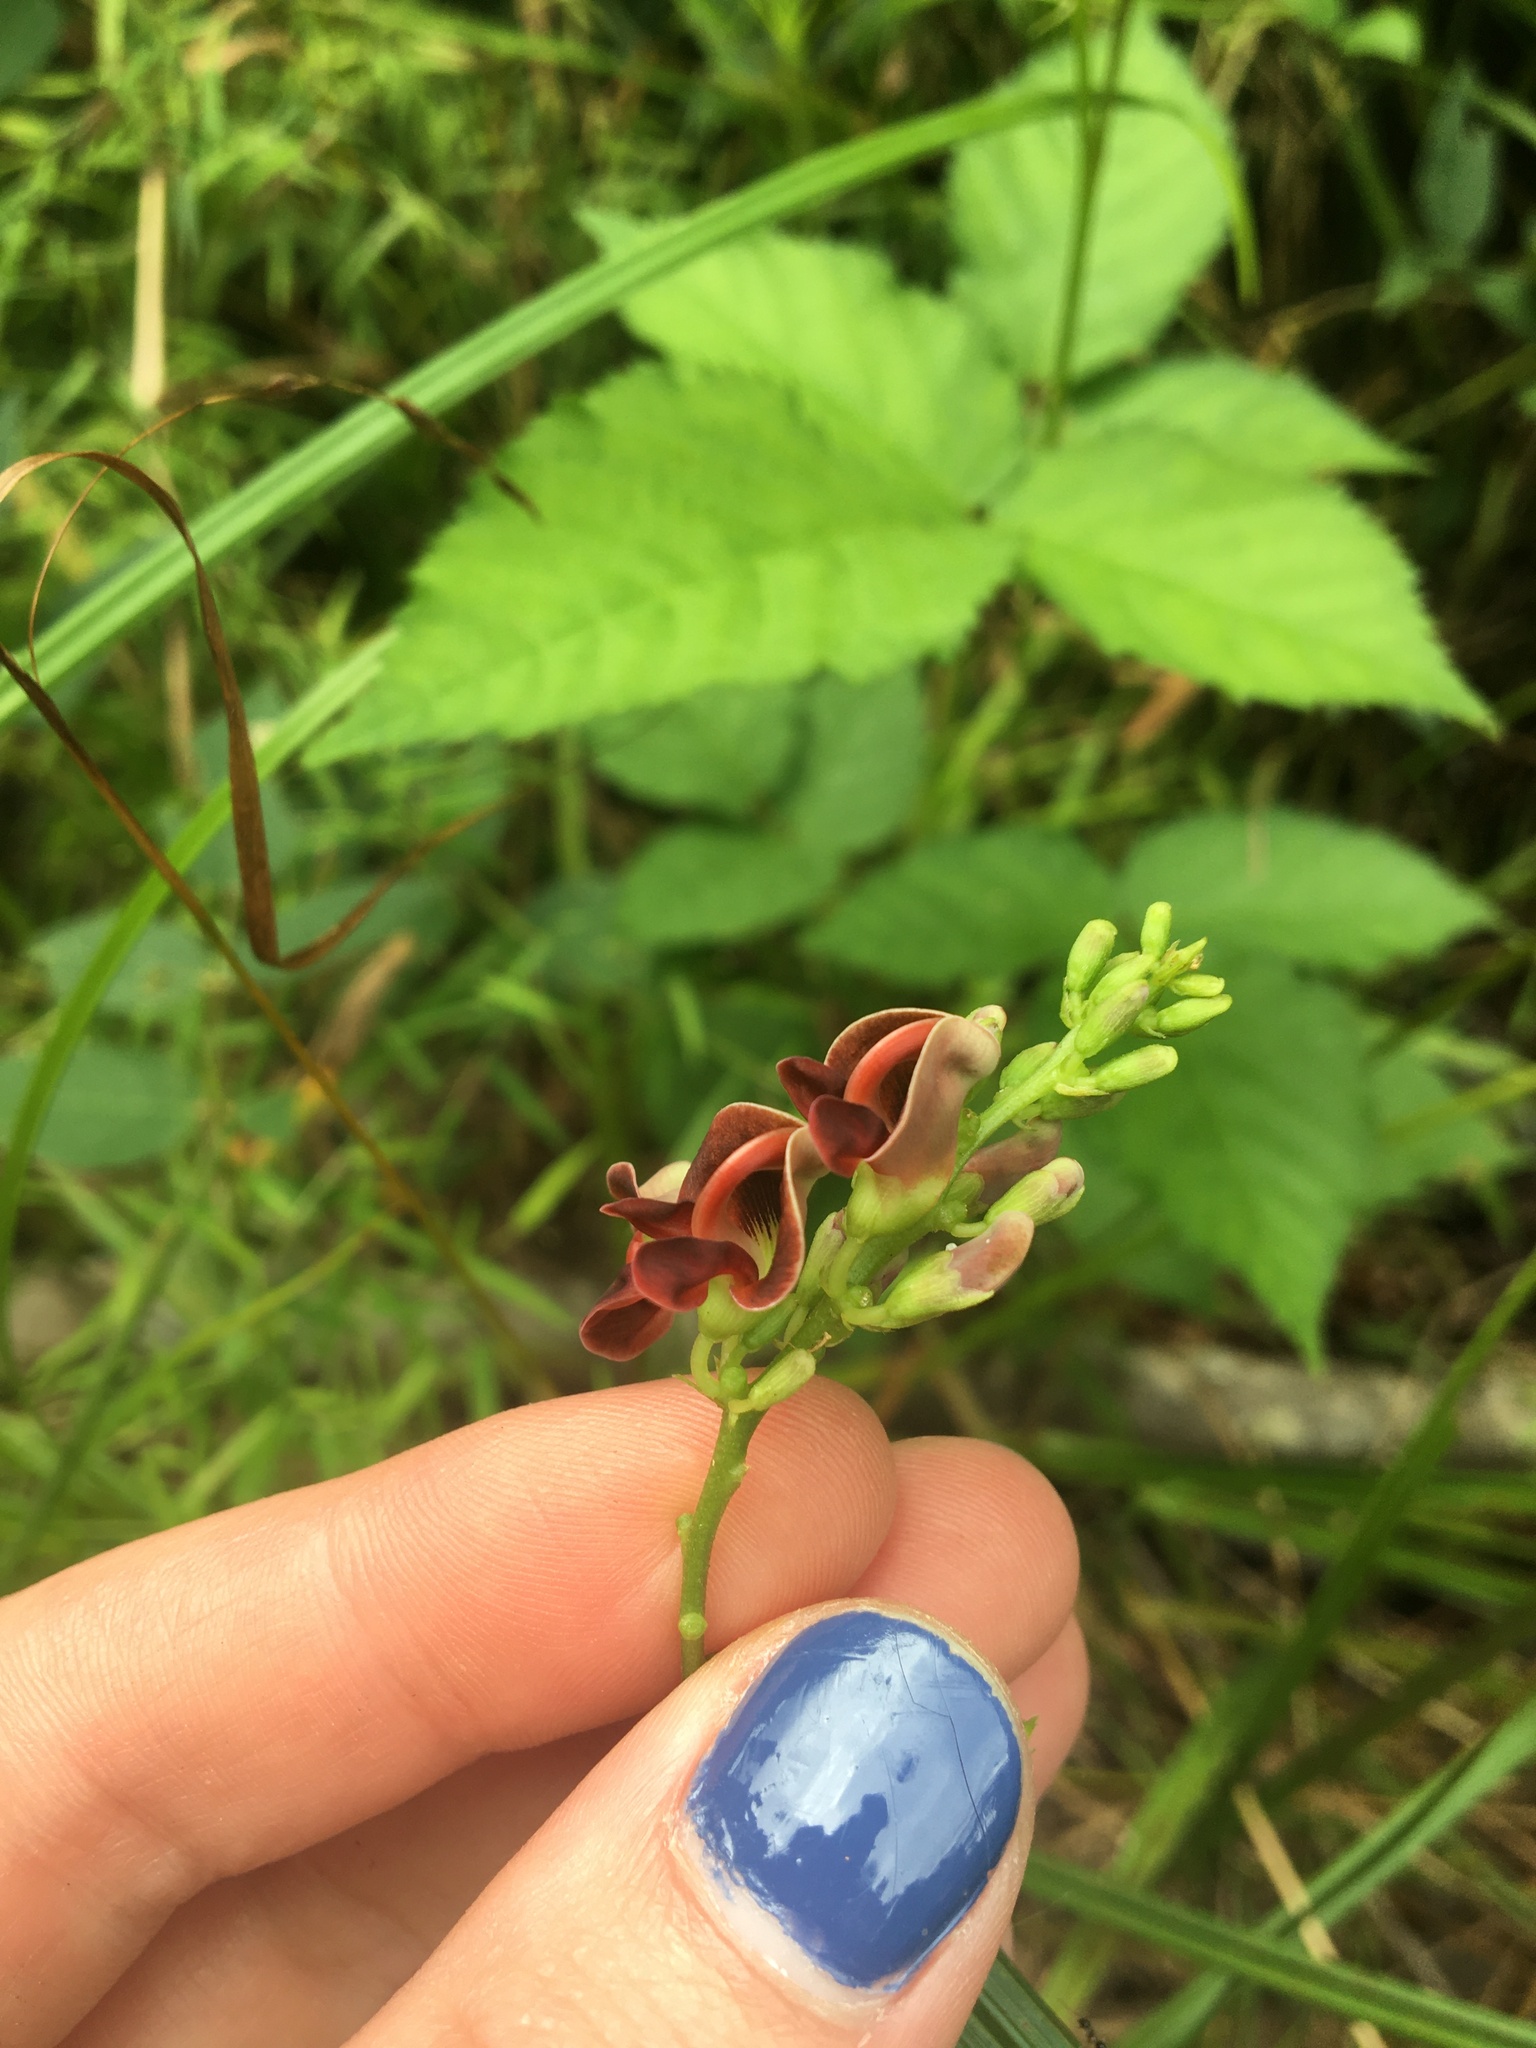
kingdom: Plantae
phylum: Tracheophyta
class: Magnoliopsida
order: Fabales
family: Fabaceae
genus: Apios
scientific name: Apios americana
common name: American potato-bean
